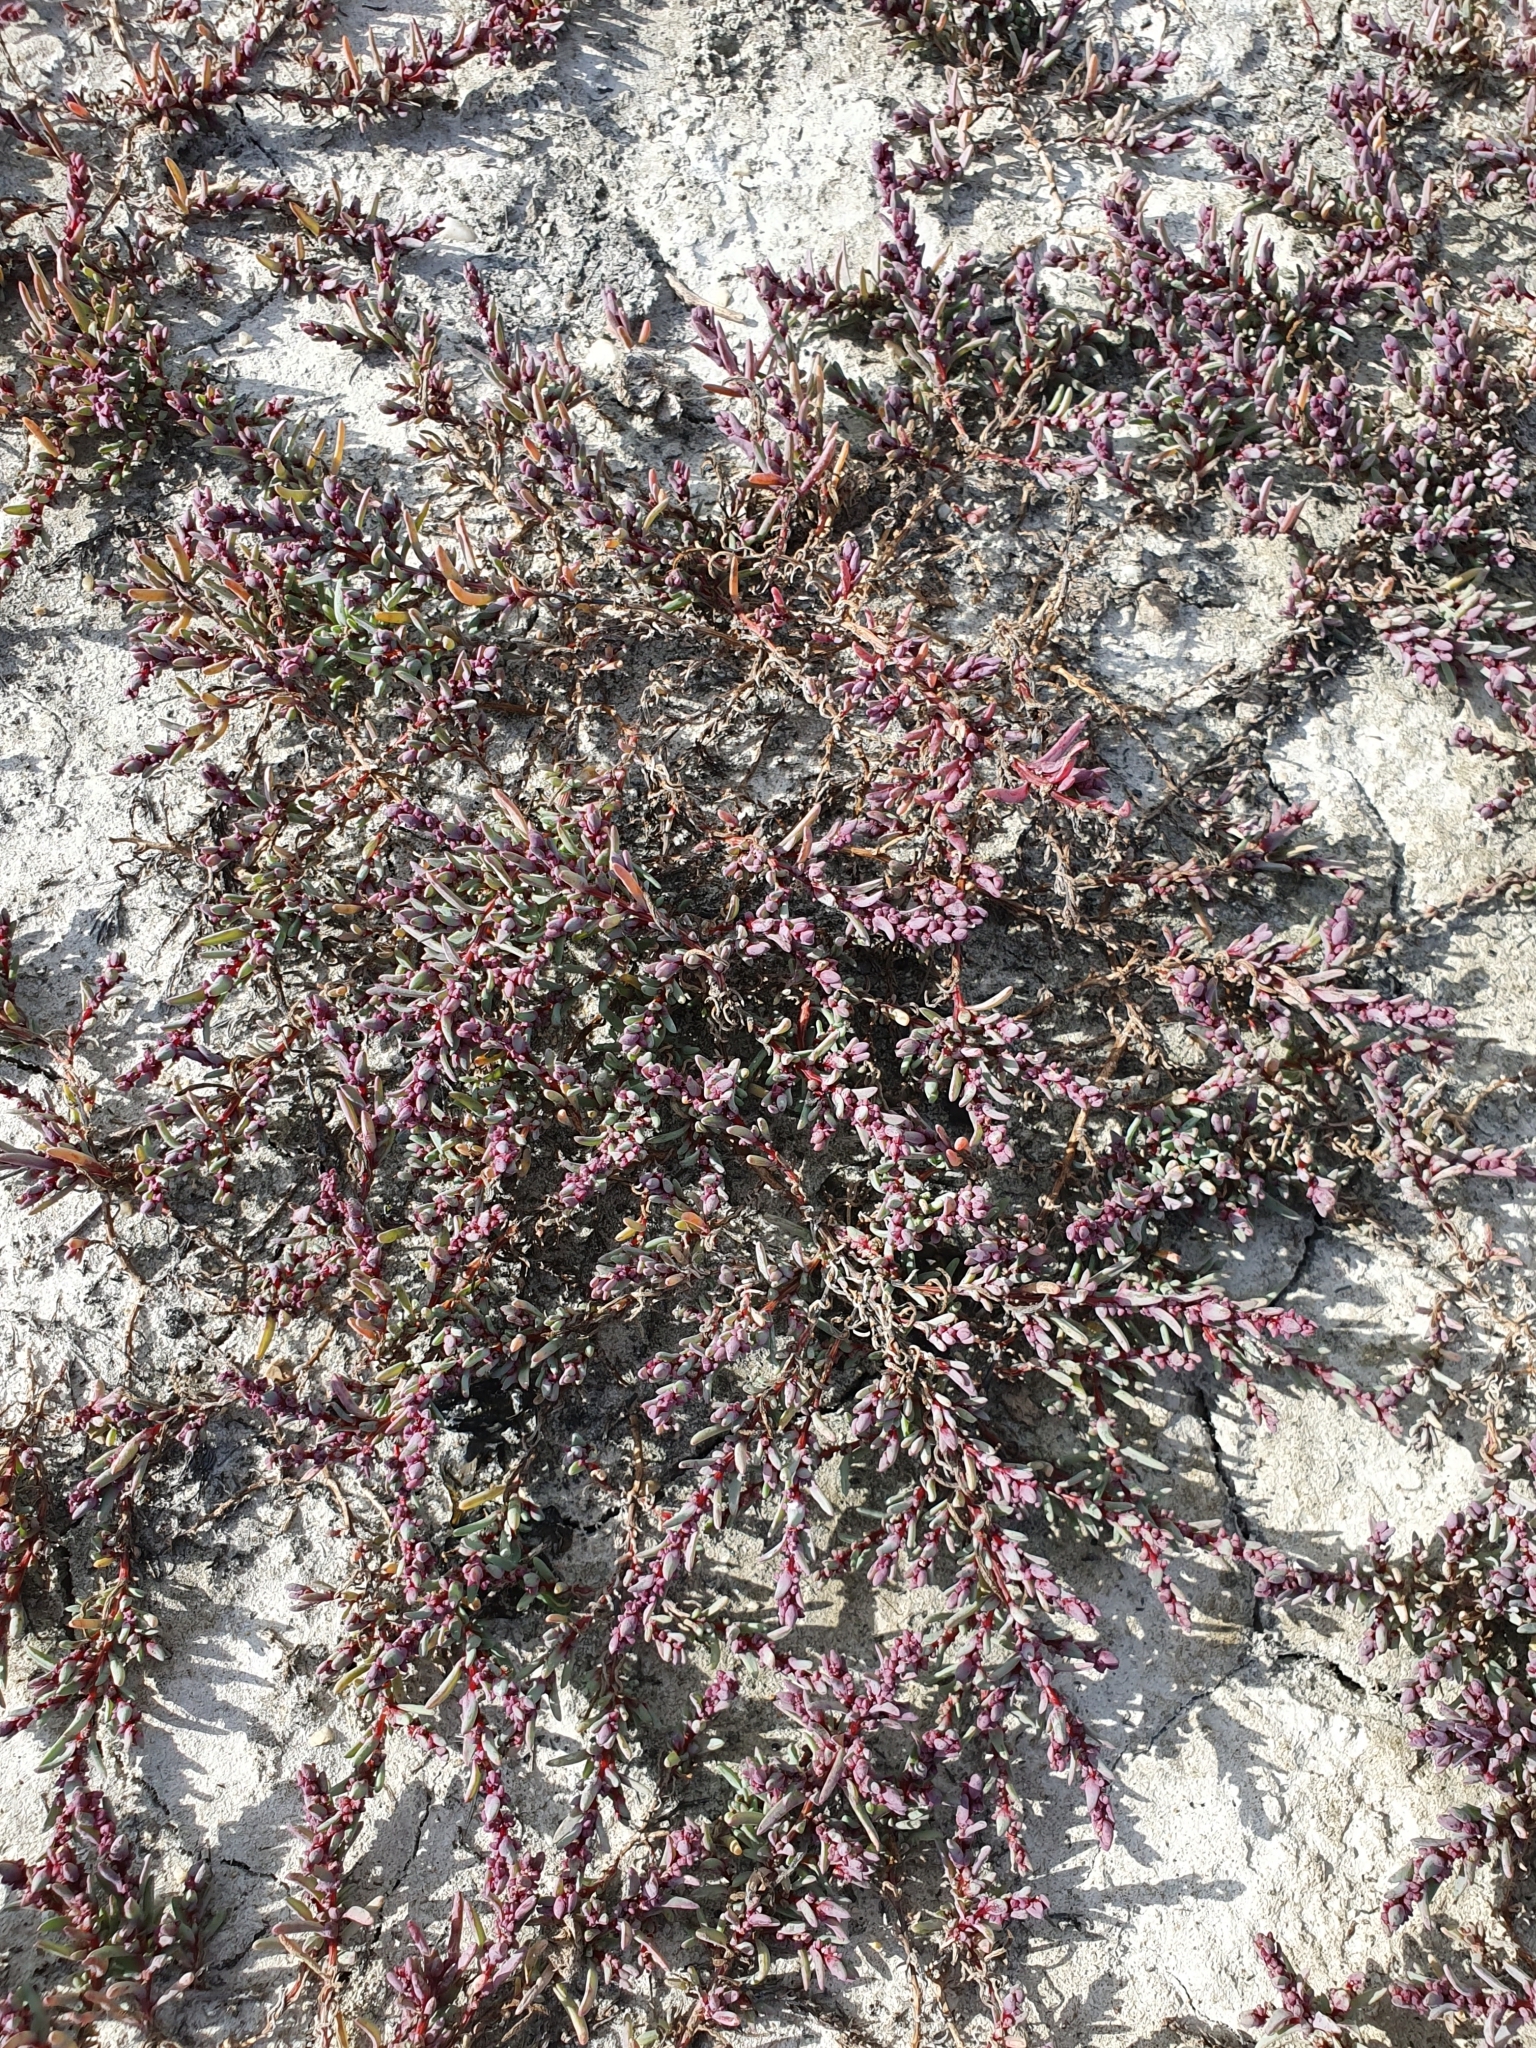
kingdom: Plantae
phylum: Tracheophyta
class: Magnoliopsida
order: Caryophyllales
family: Amaranthaceae
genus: Suaeda
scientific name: Suaeda pannonica
